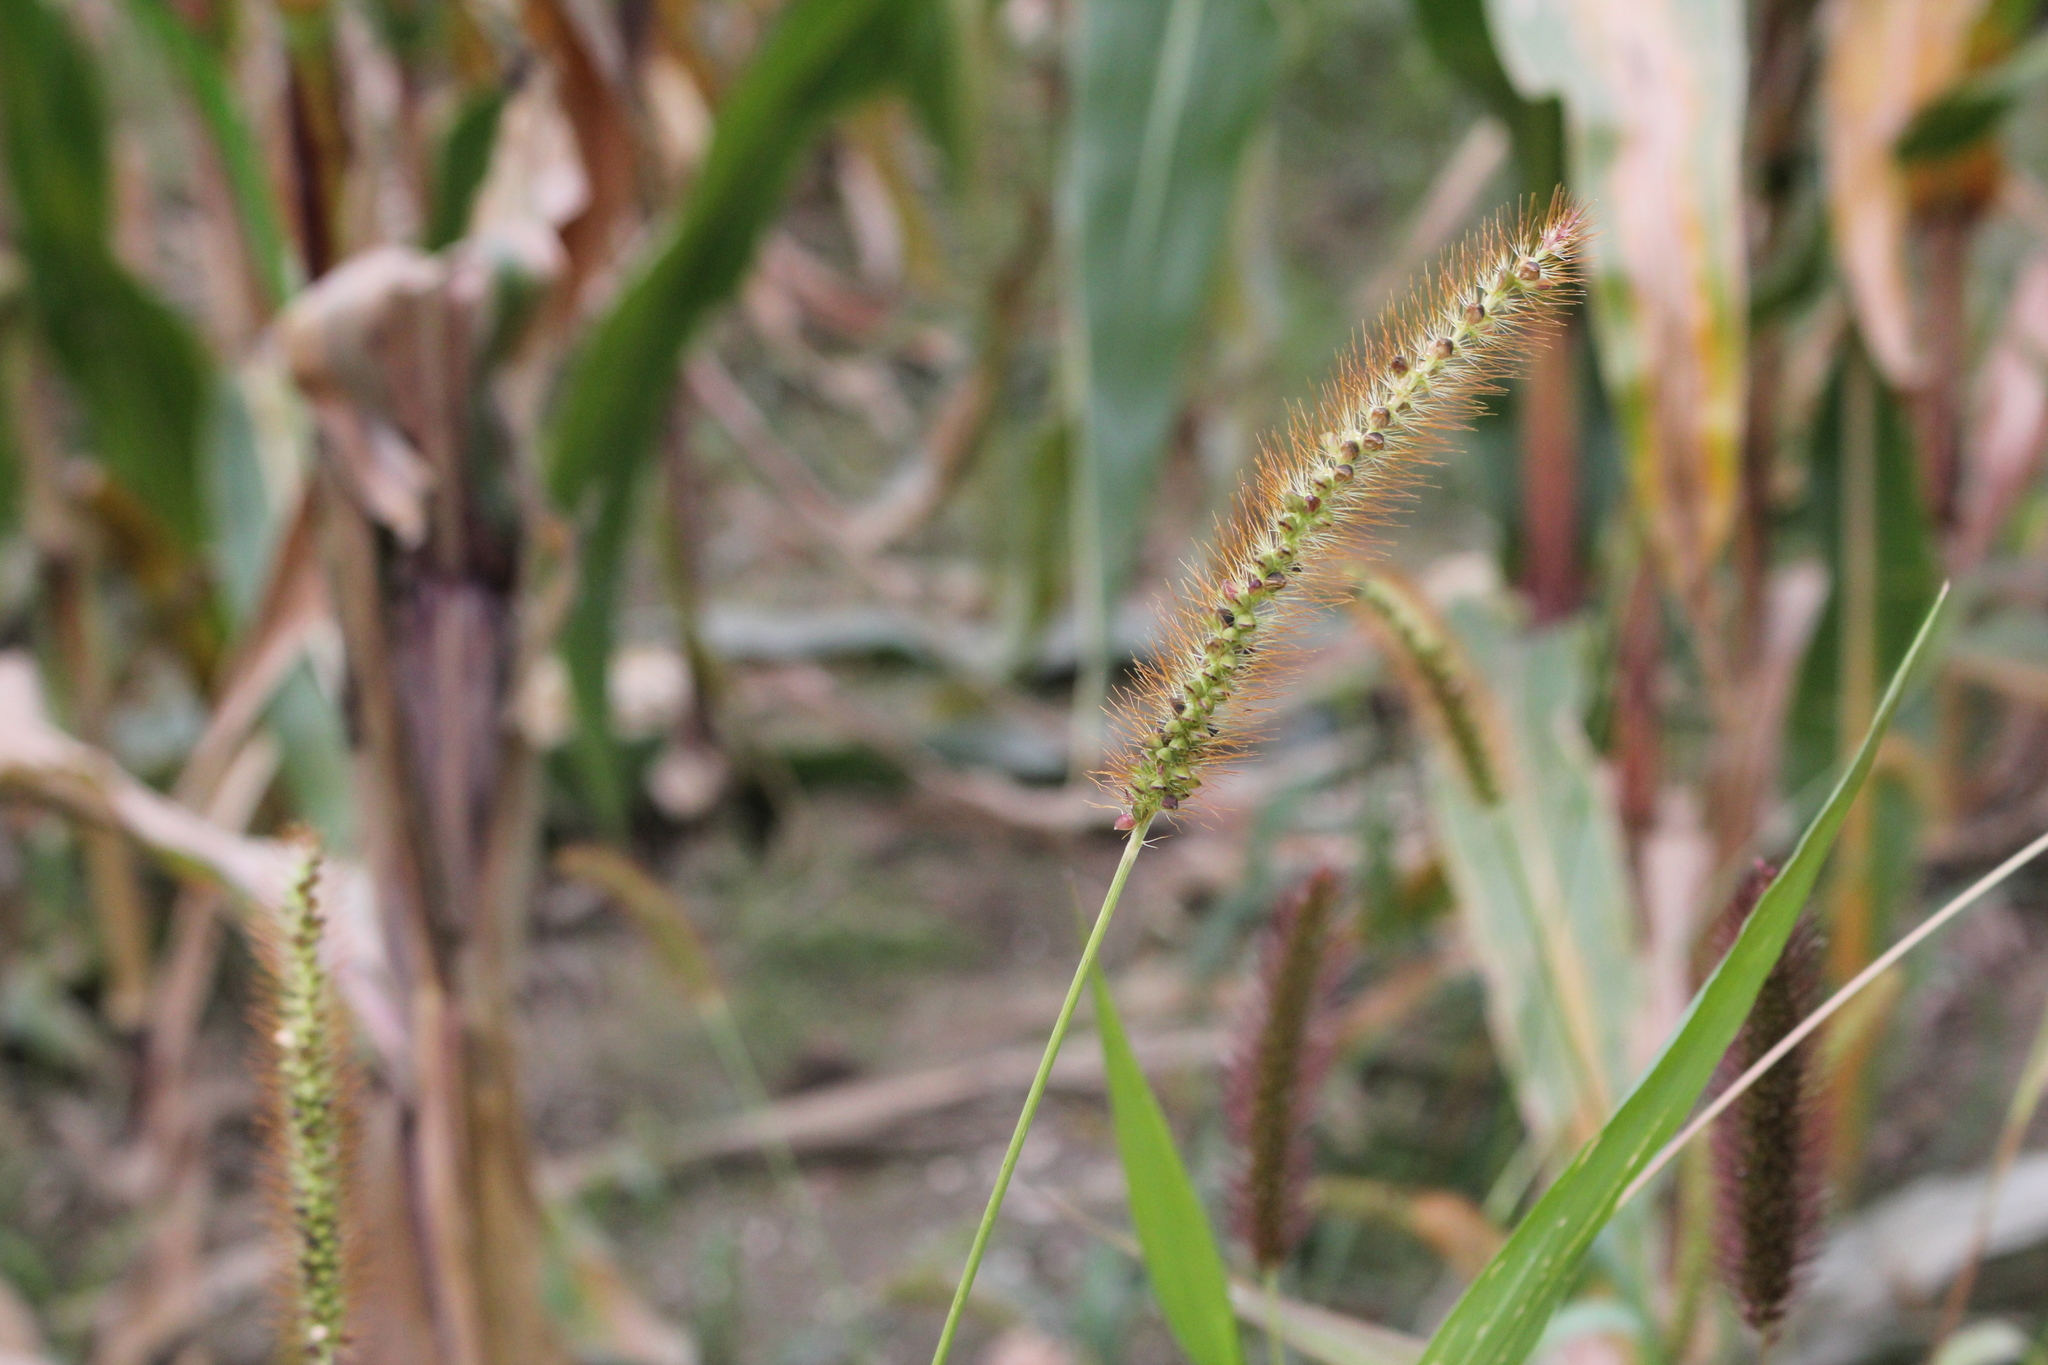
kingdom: Plantae
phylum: Tracheophyta
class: Liliopsida
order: Poales
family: Poaceae
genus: Setaria
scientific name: Setaria pumila
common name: Yellow bristle-grass
